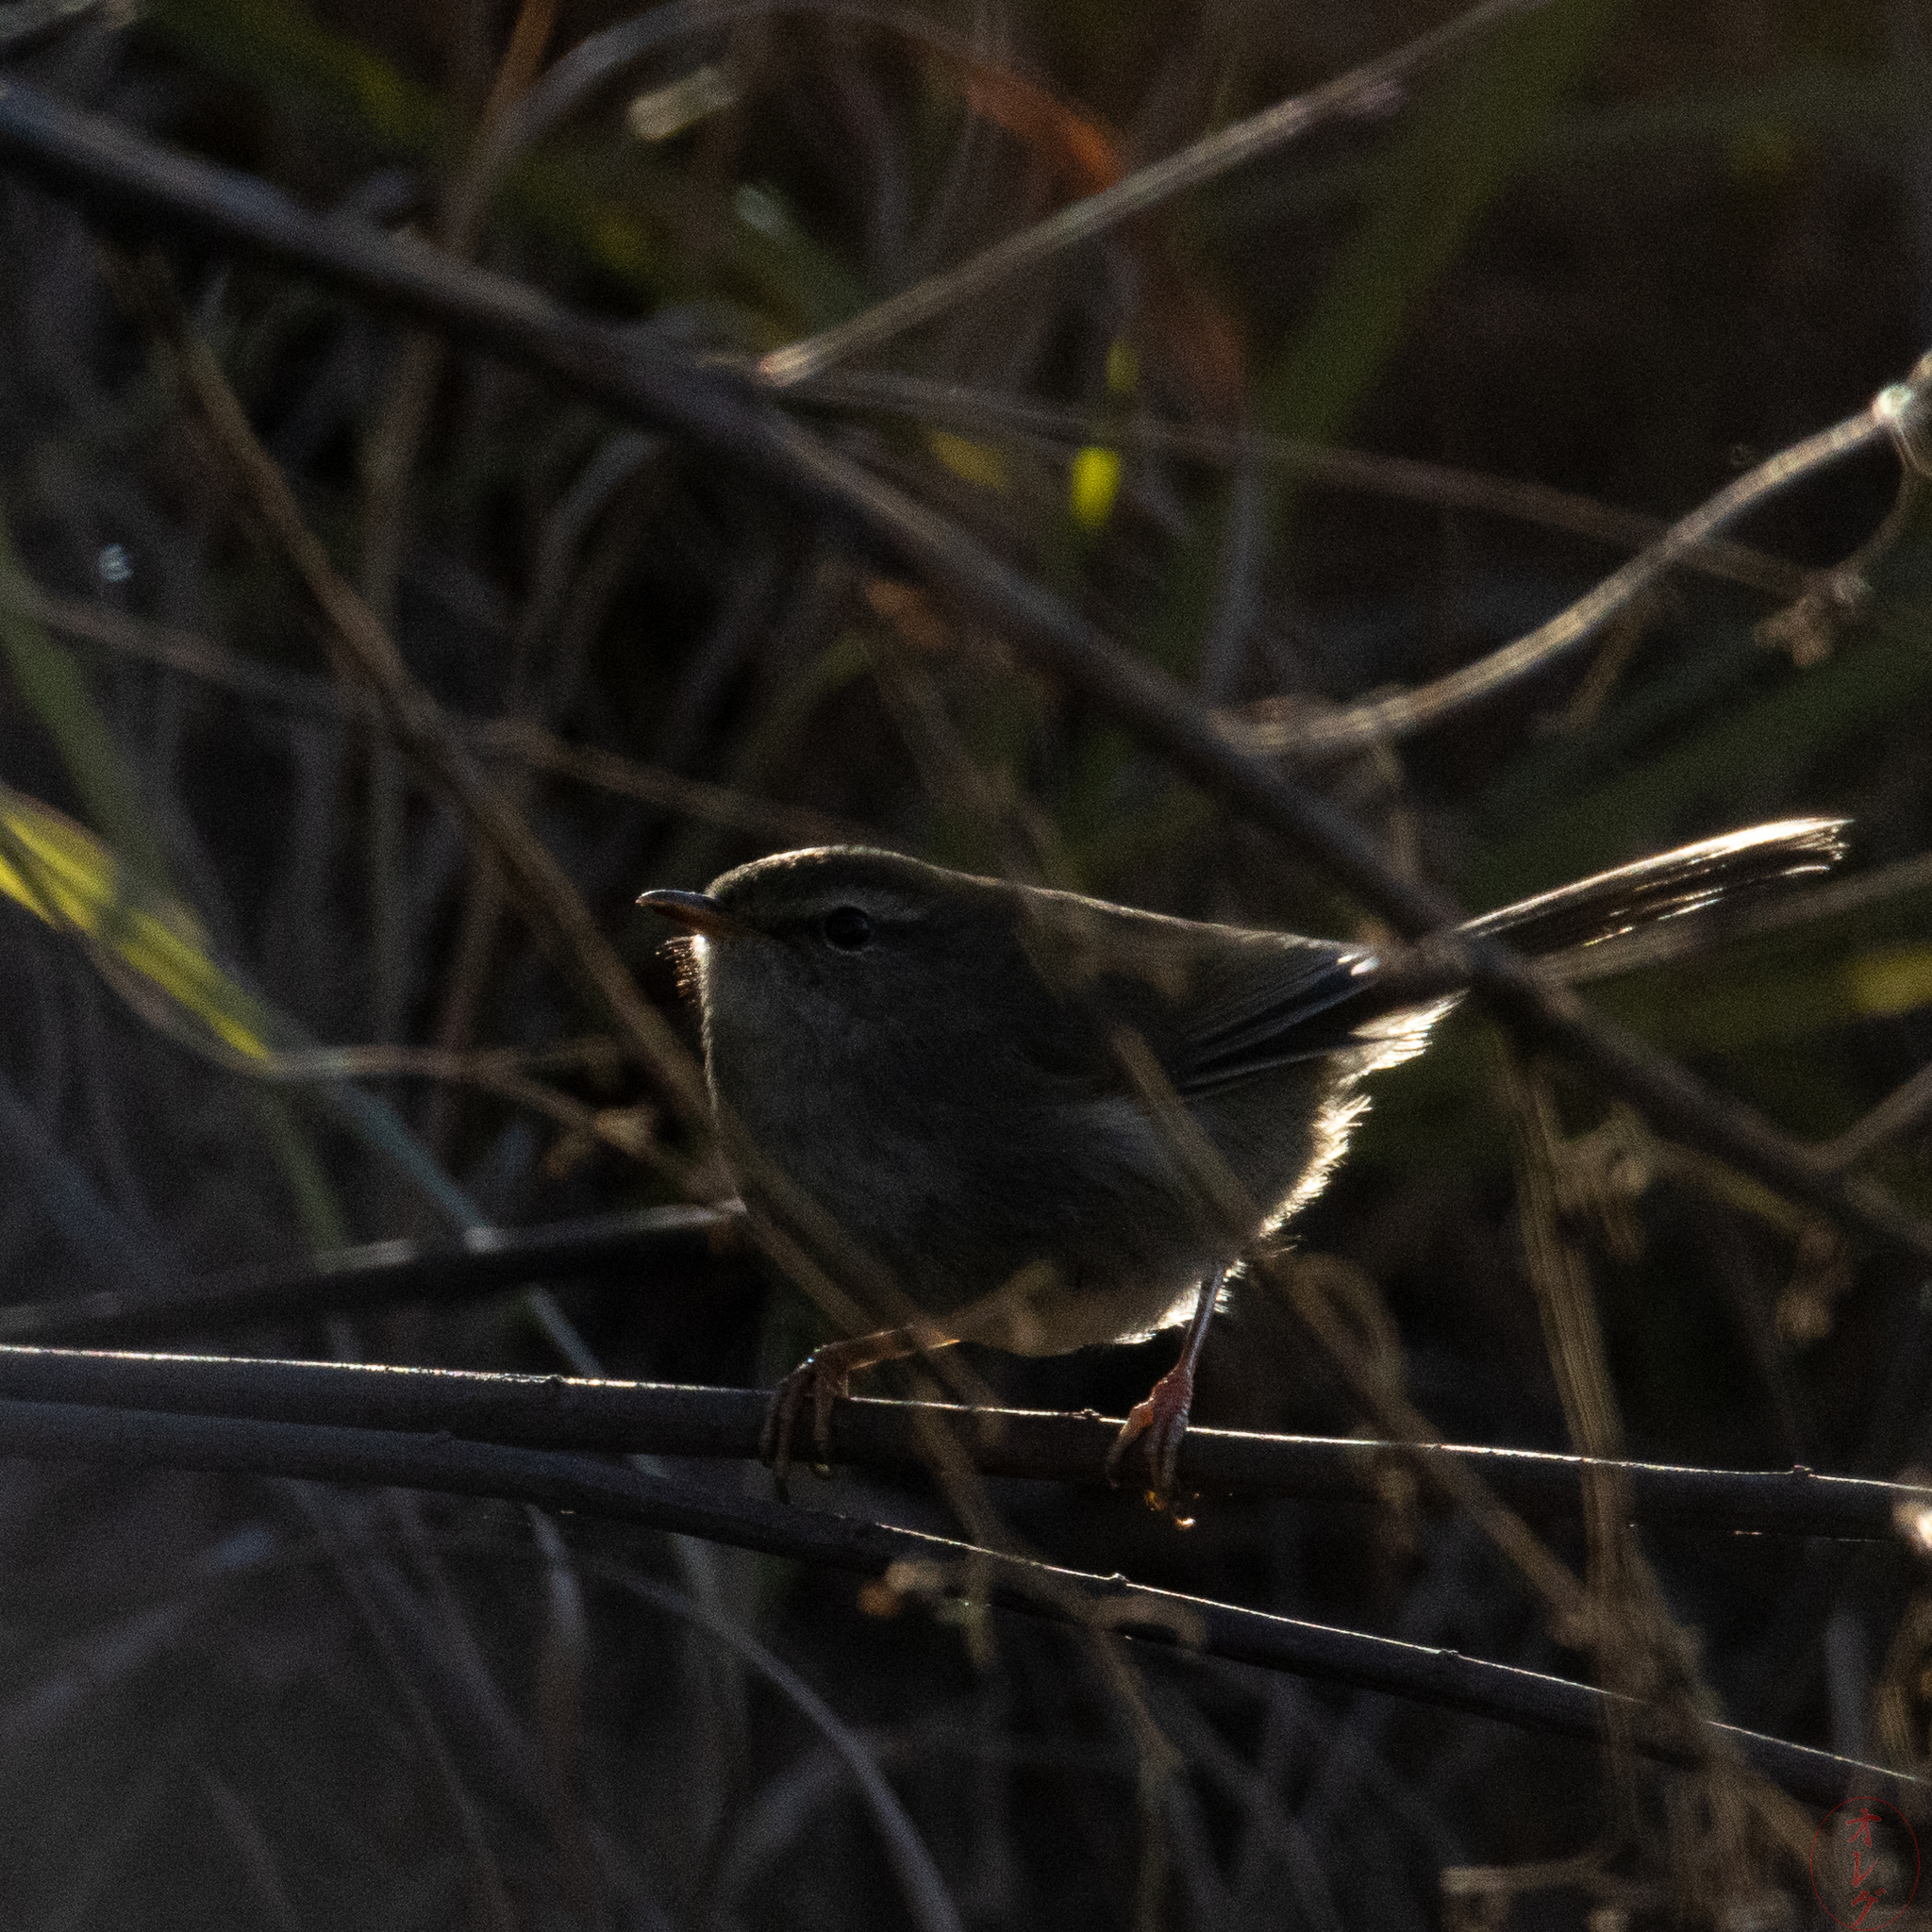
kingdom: Animalia
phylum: Chordata
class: Aves
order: Passeriformes
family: Cettiidae
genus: Horornis
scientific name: Horornis diphone
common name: Japanese bush warbler
